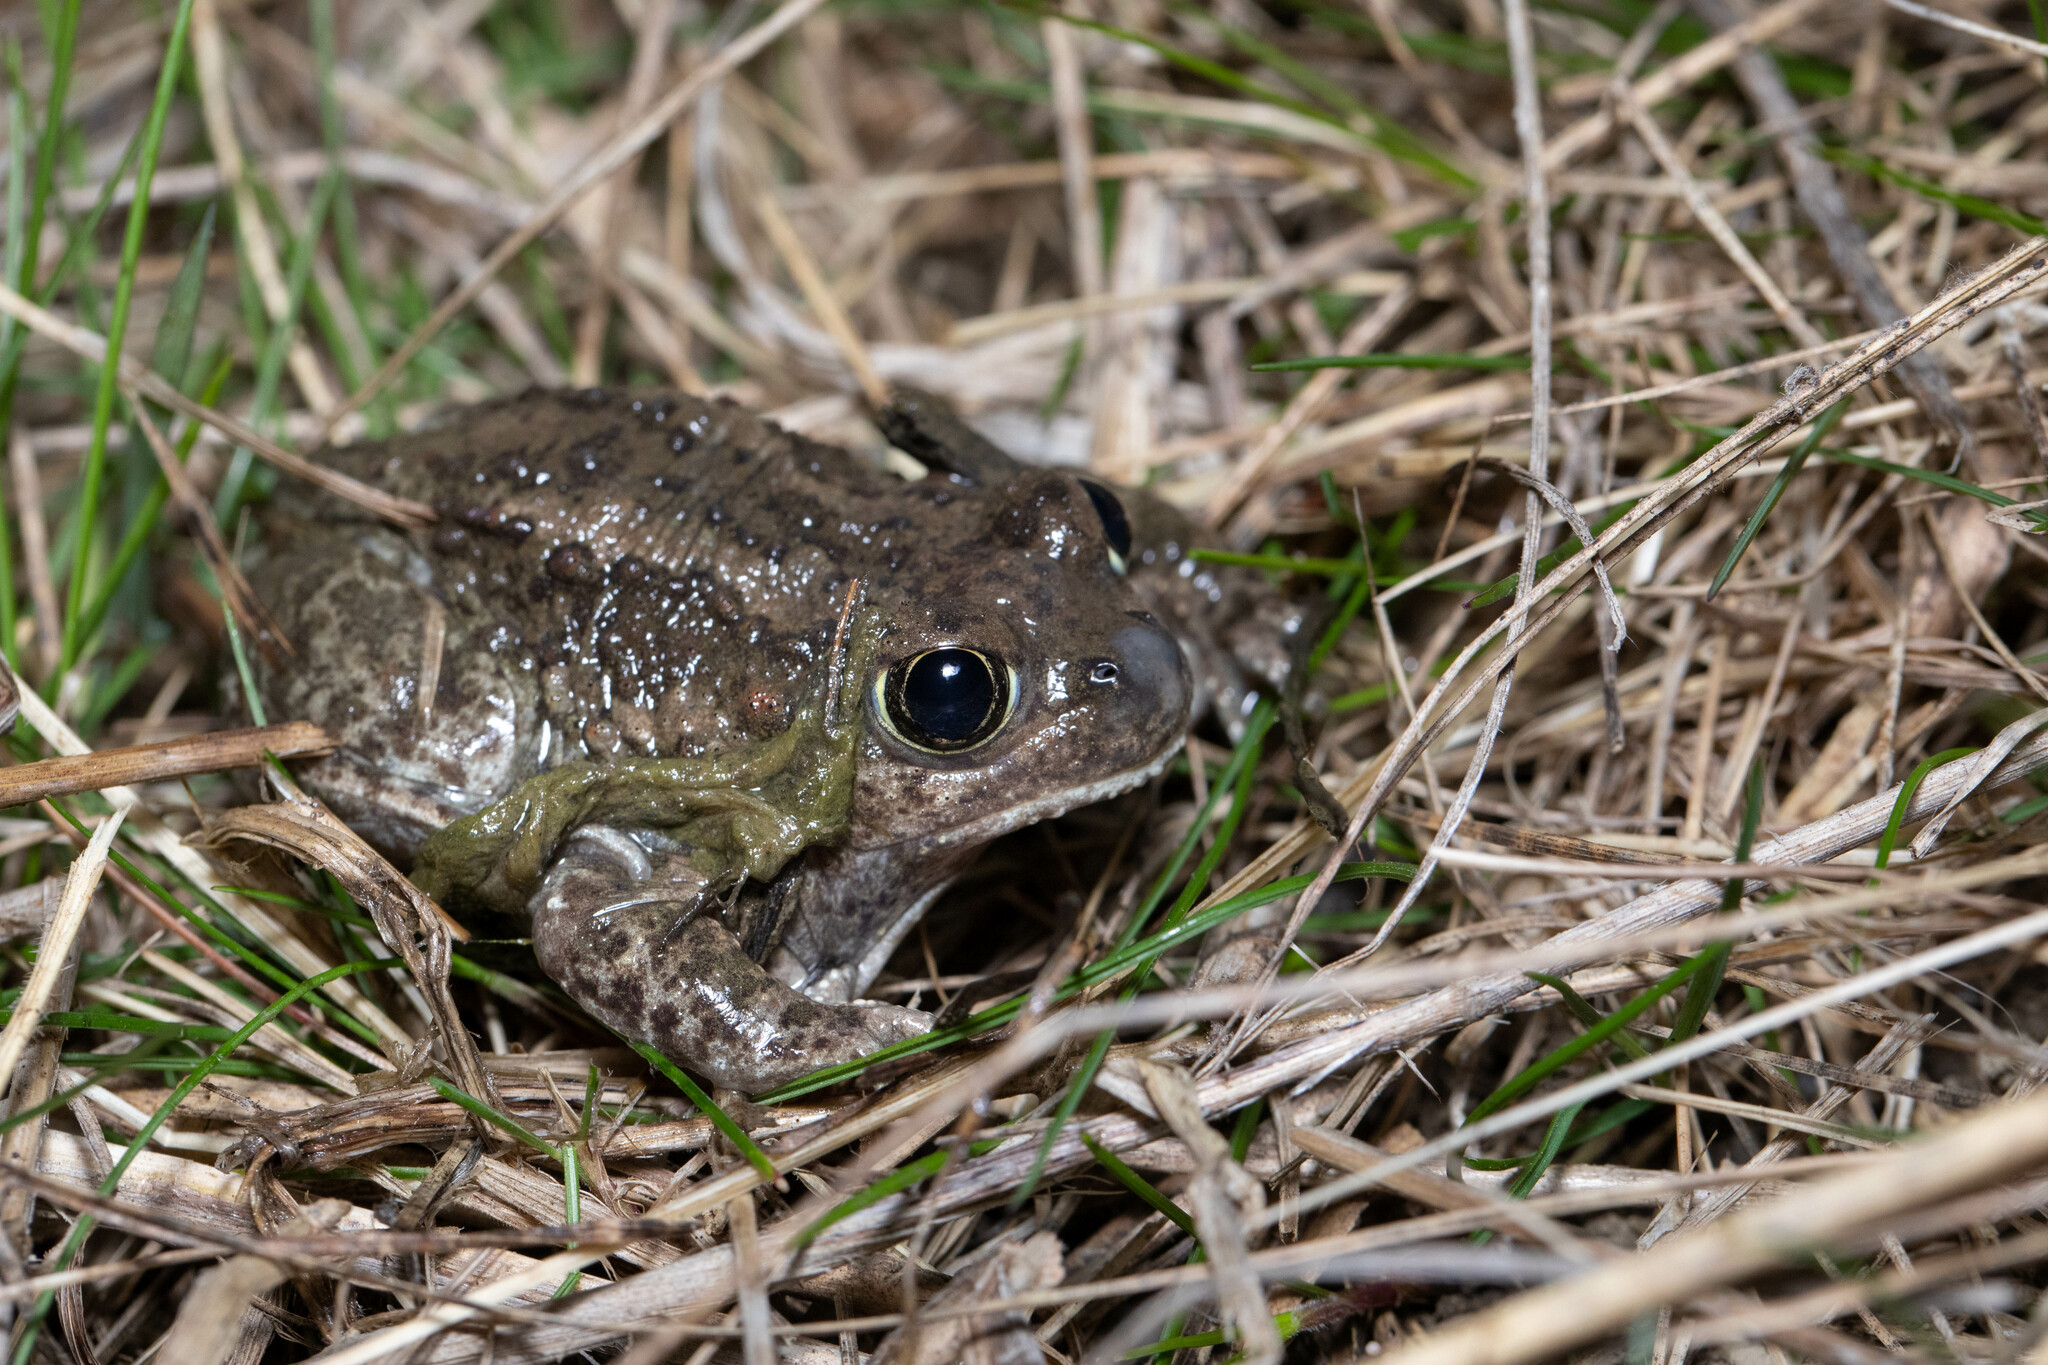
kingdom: Animalia
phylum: Chordata
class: Amphibia
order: Anura
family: Scaphiopodidae
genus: Spea
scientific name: Spea intermontana
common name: Great basin spadefoot
